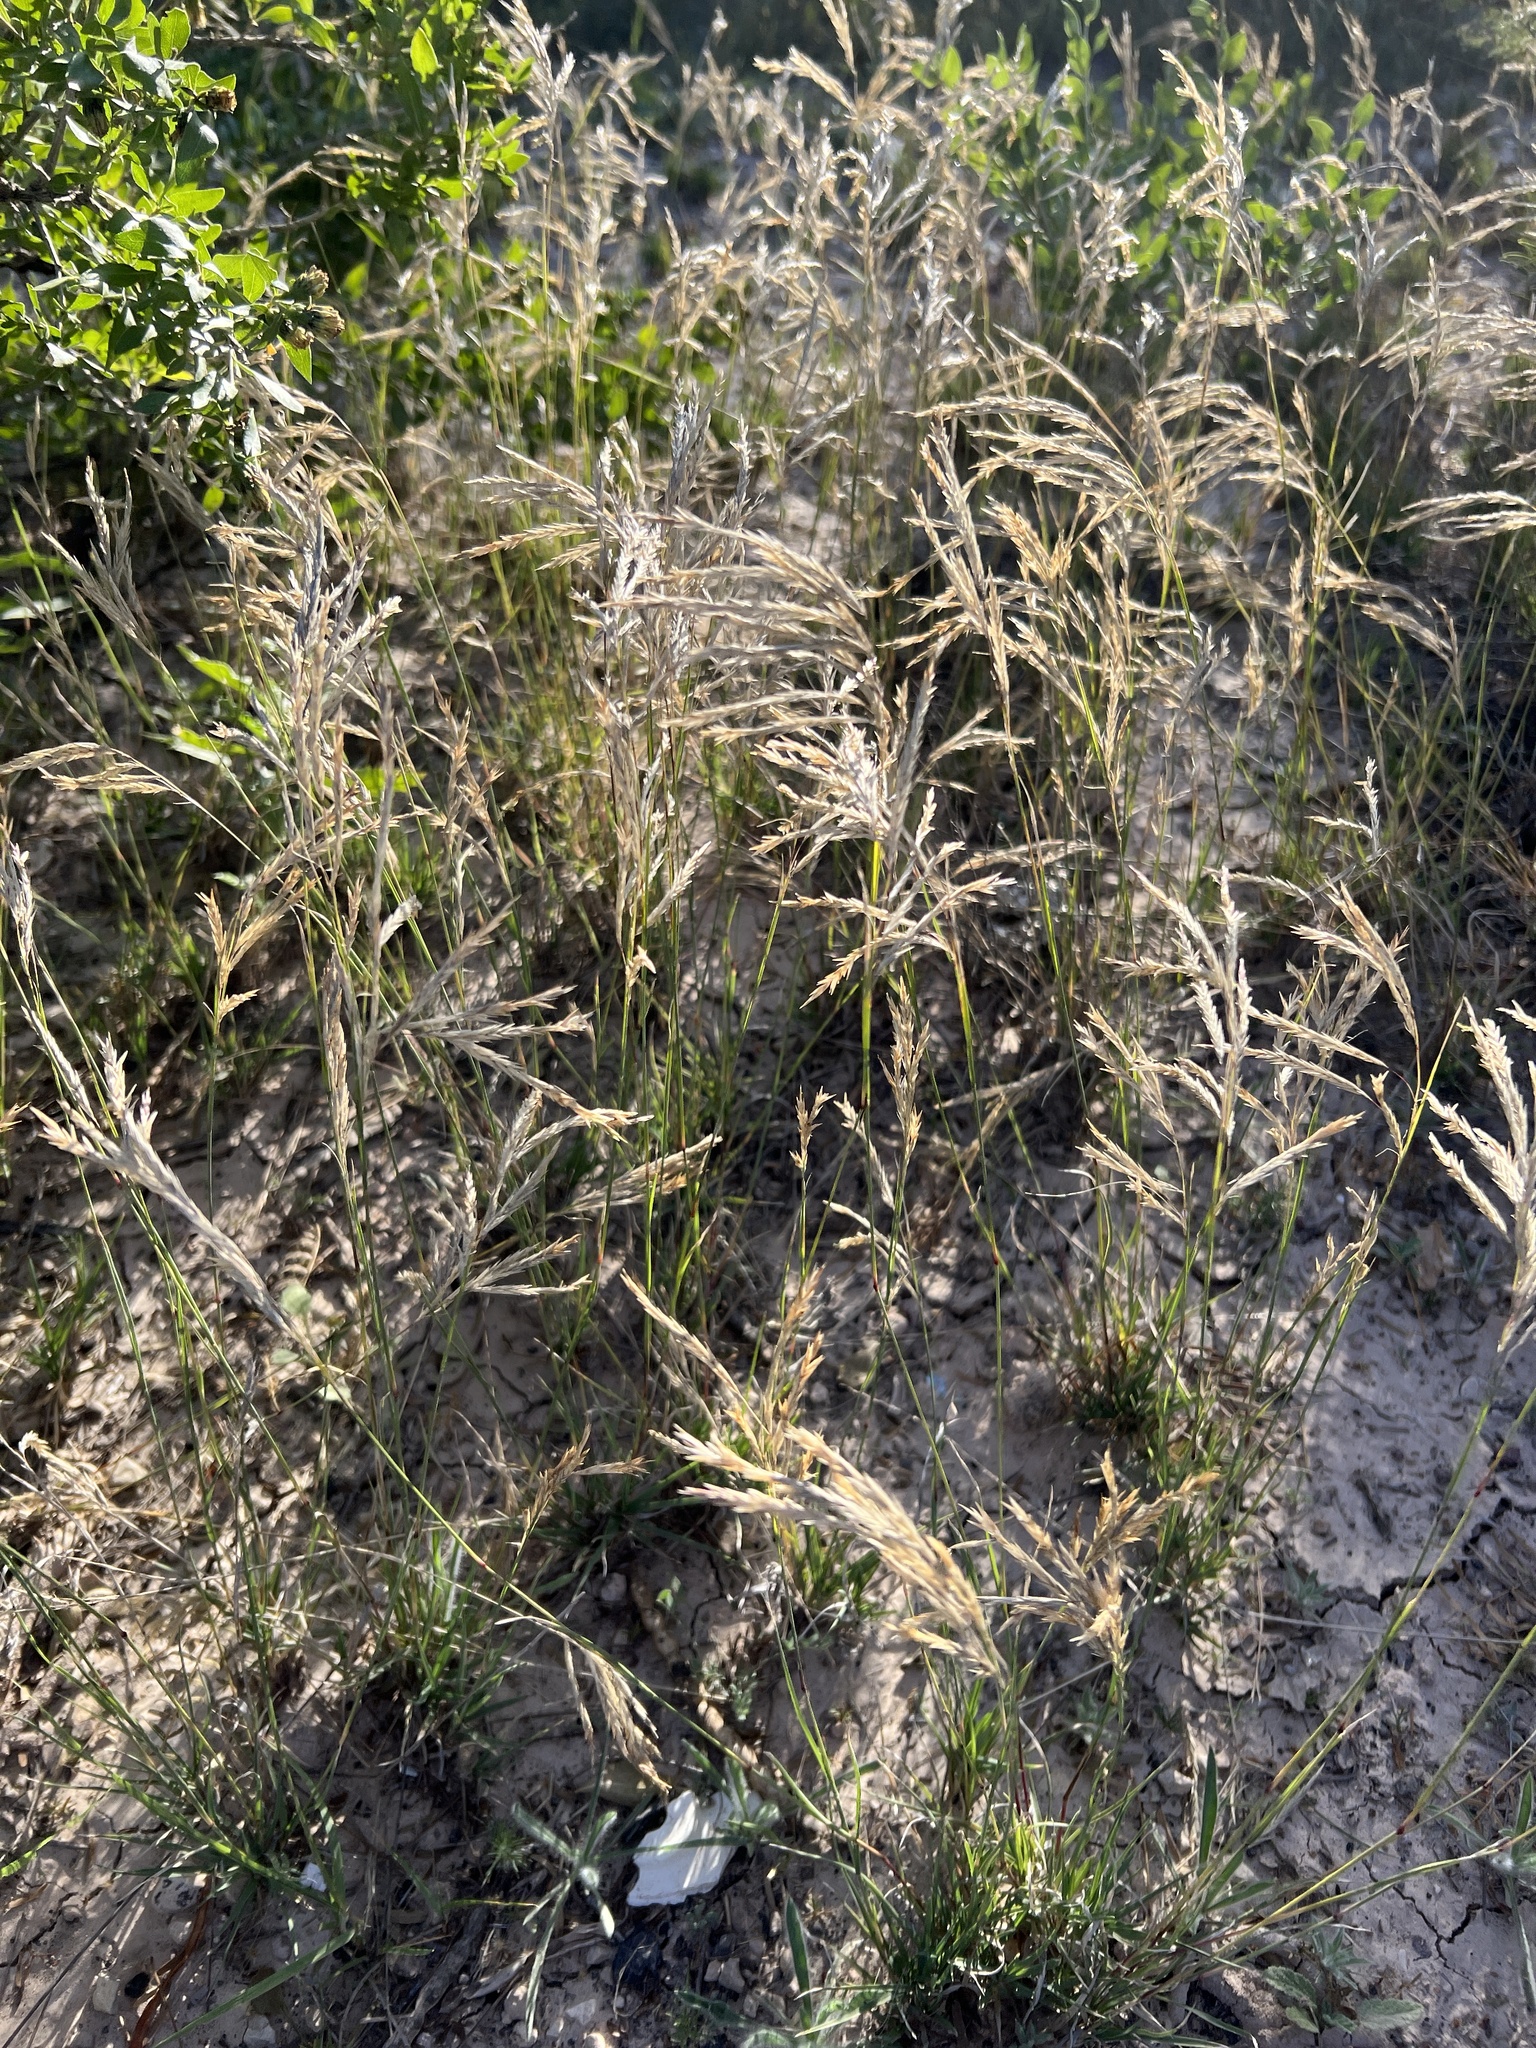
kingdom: Plantae
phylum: Tracheophyta
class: Liliopsida
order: Poales
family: Poaceae
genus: Scleropogon
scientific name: Scleropogon brevifolius
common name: Burro grass
